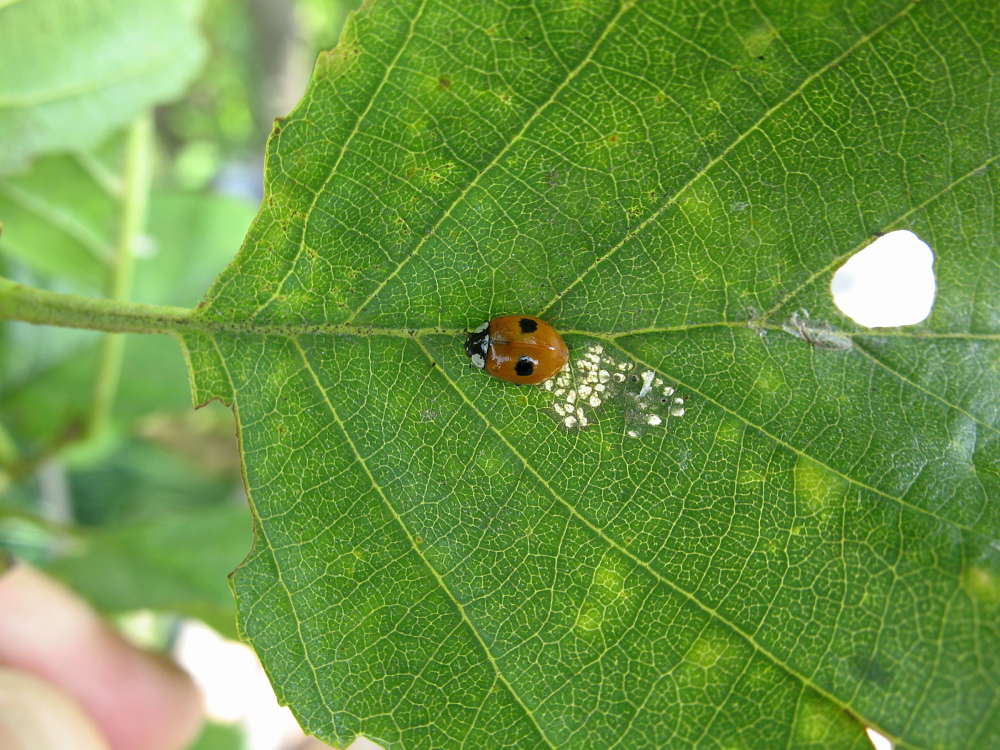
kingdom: Animalia
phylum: Arthropoda
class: Insecta
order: Coleoptera
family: Coccinellidae
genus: Adalia
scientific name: Adalia bipunctata
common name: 2-spot ladybird
